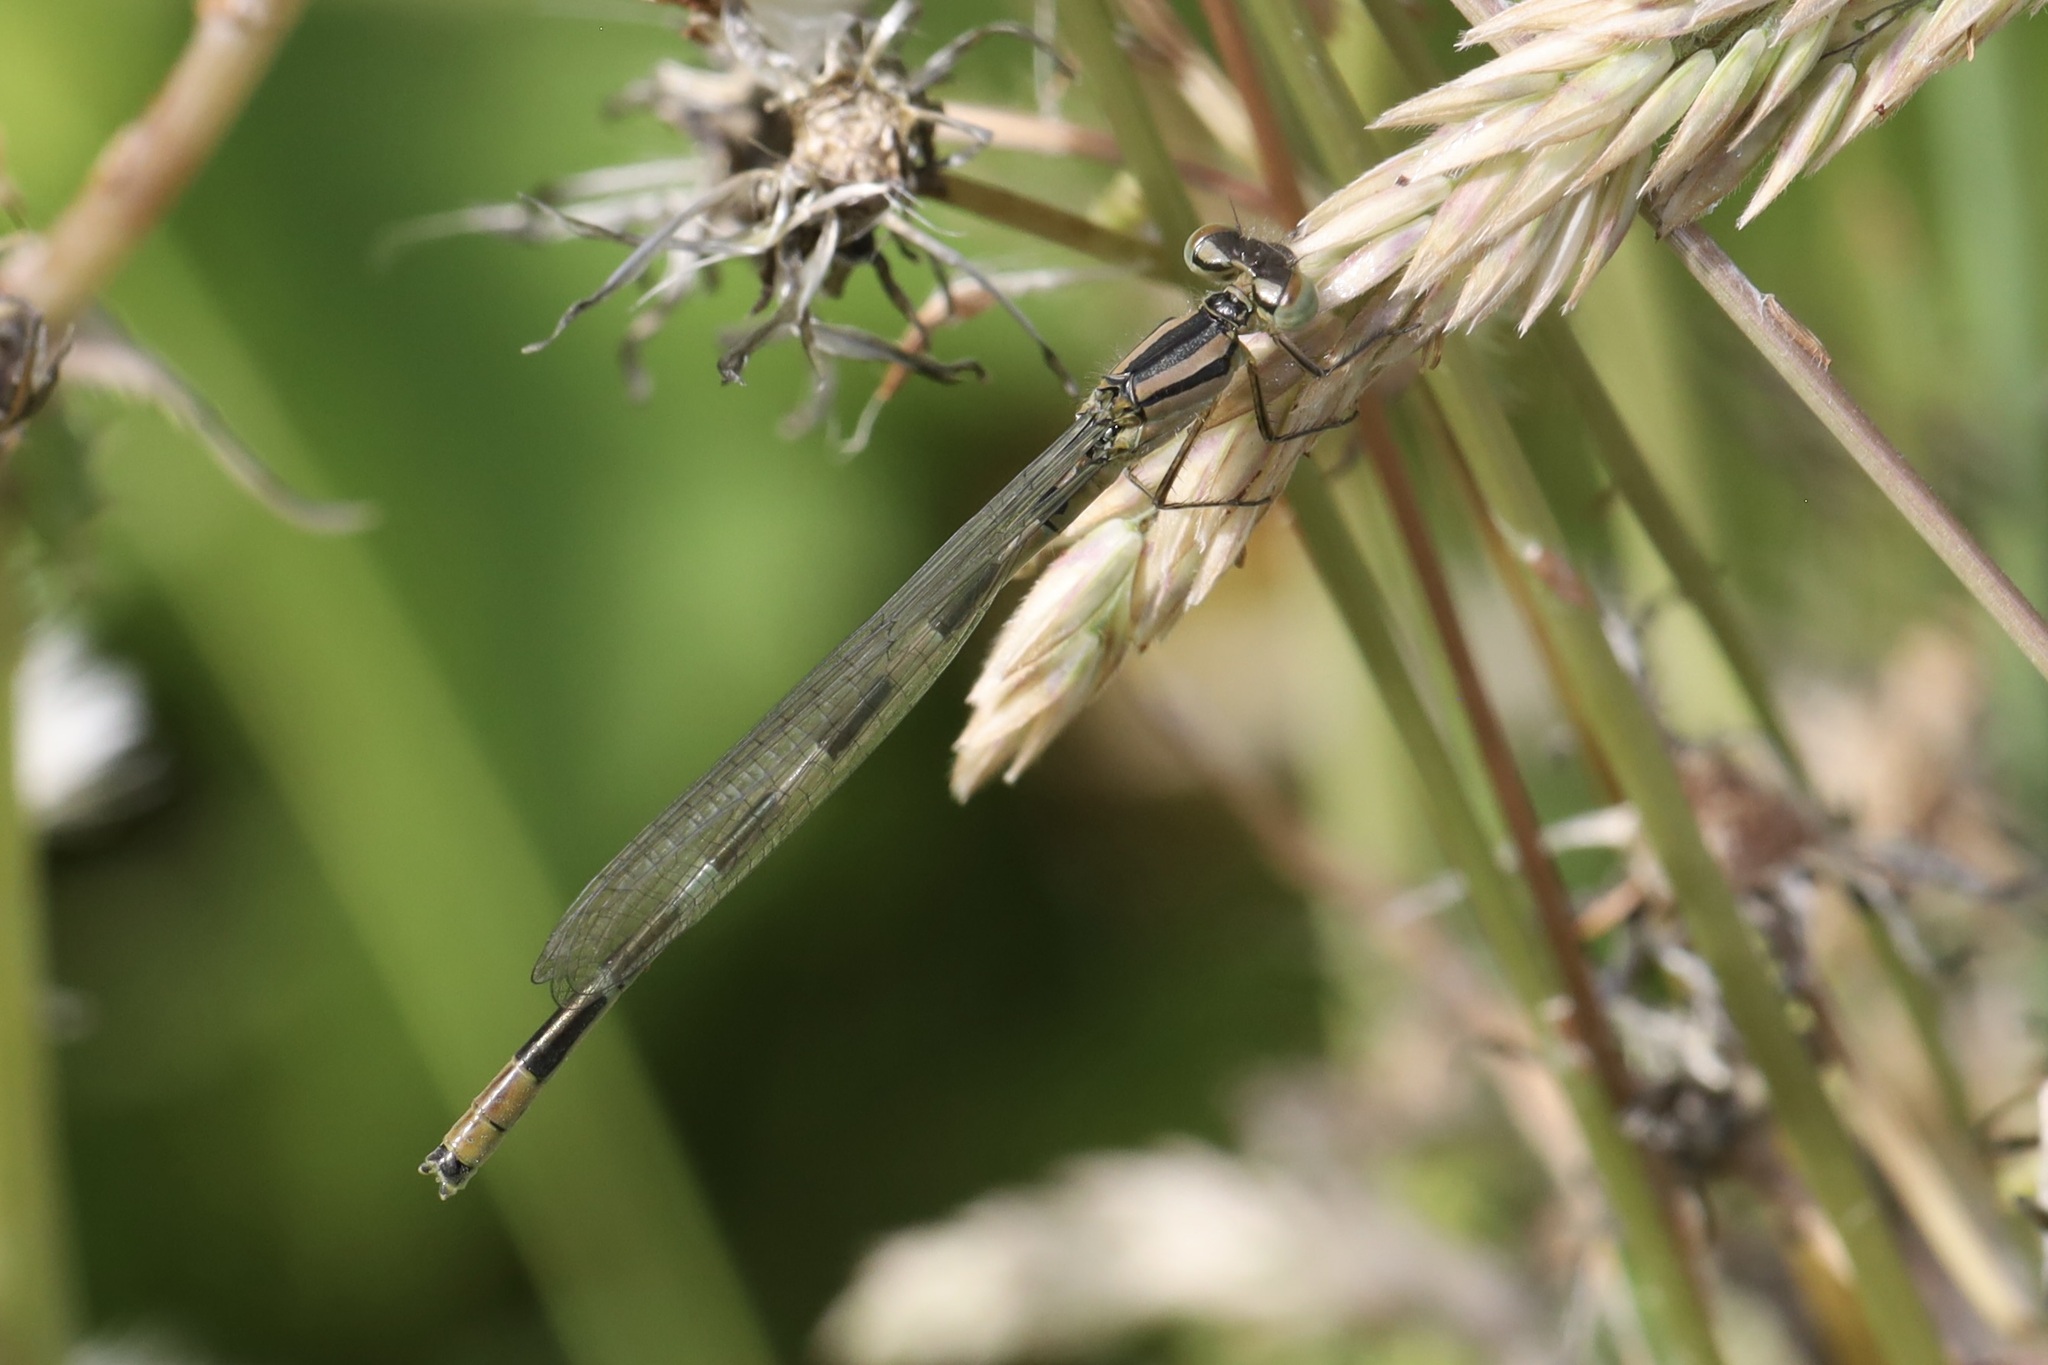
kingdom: Animalia
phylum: Arthropoda
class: Insecta
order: Odonata
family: Coenagrionidae
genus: Enallagma
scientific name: Enallagma carunculatum
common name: Tule bluet
